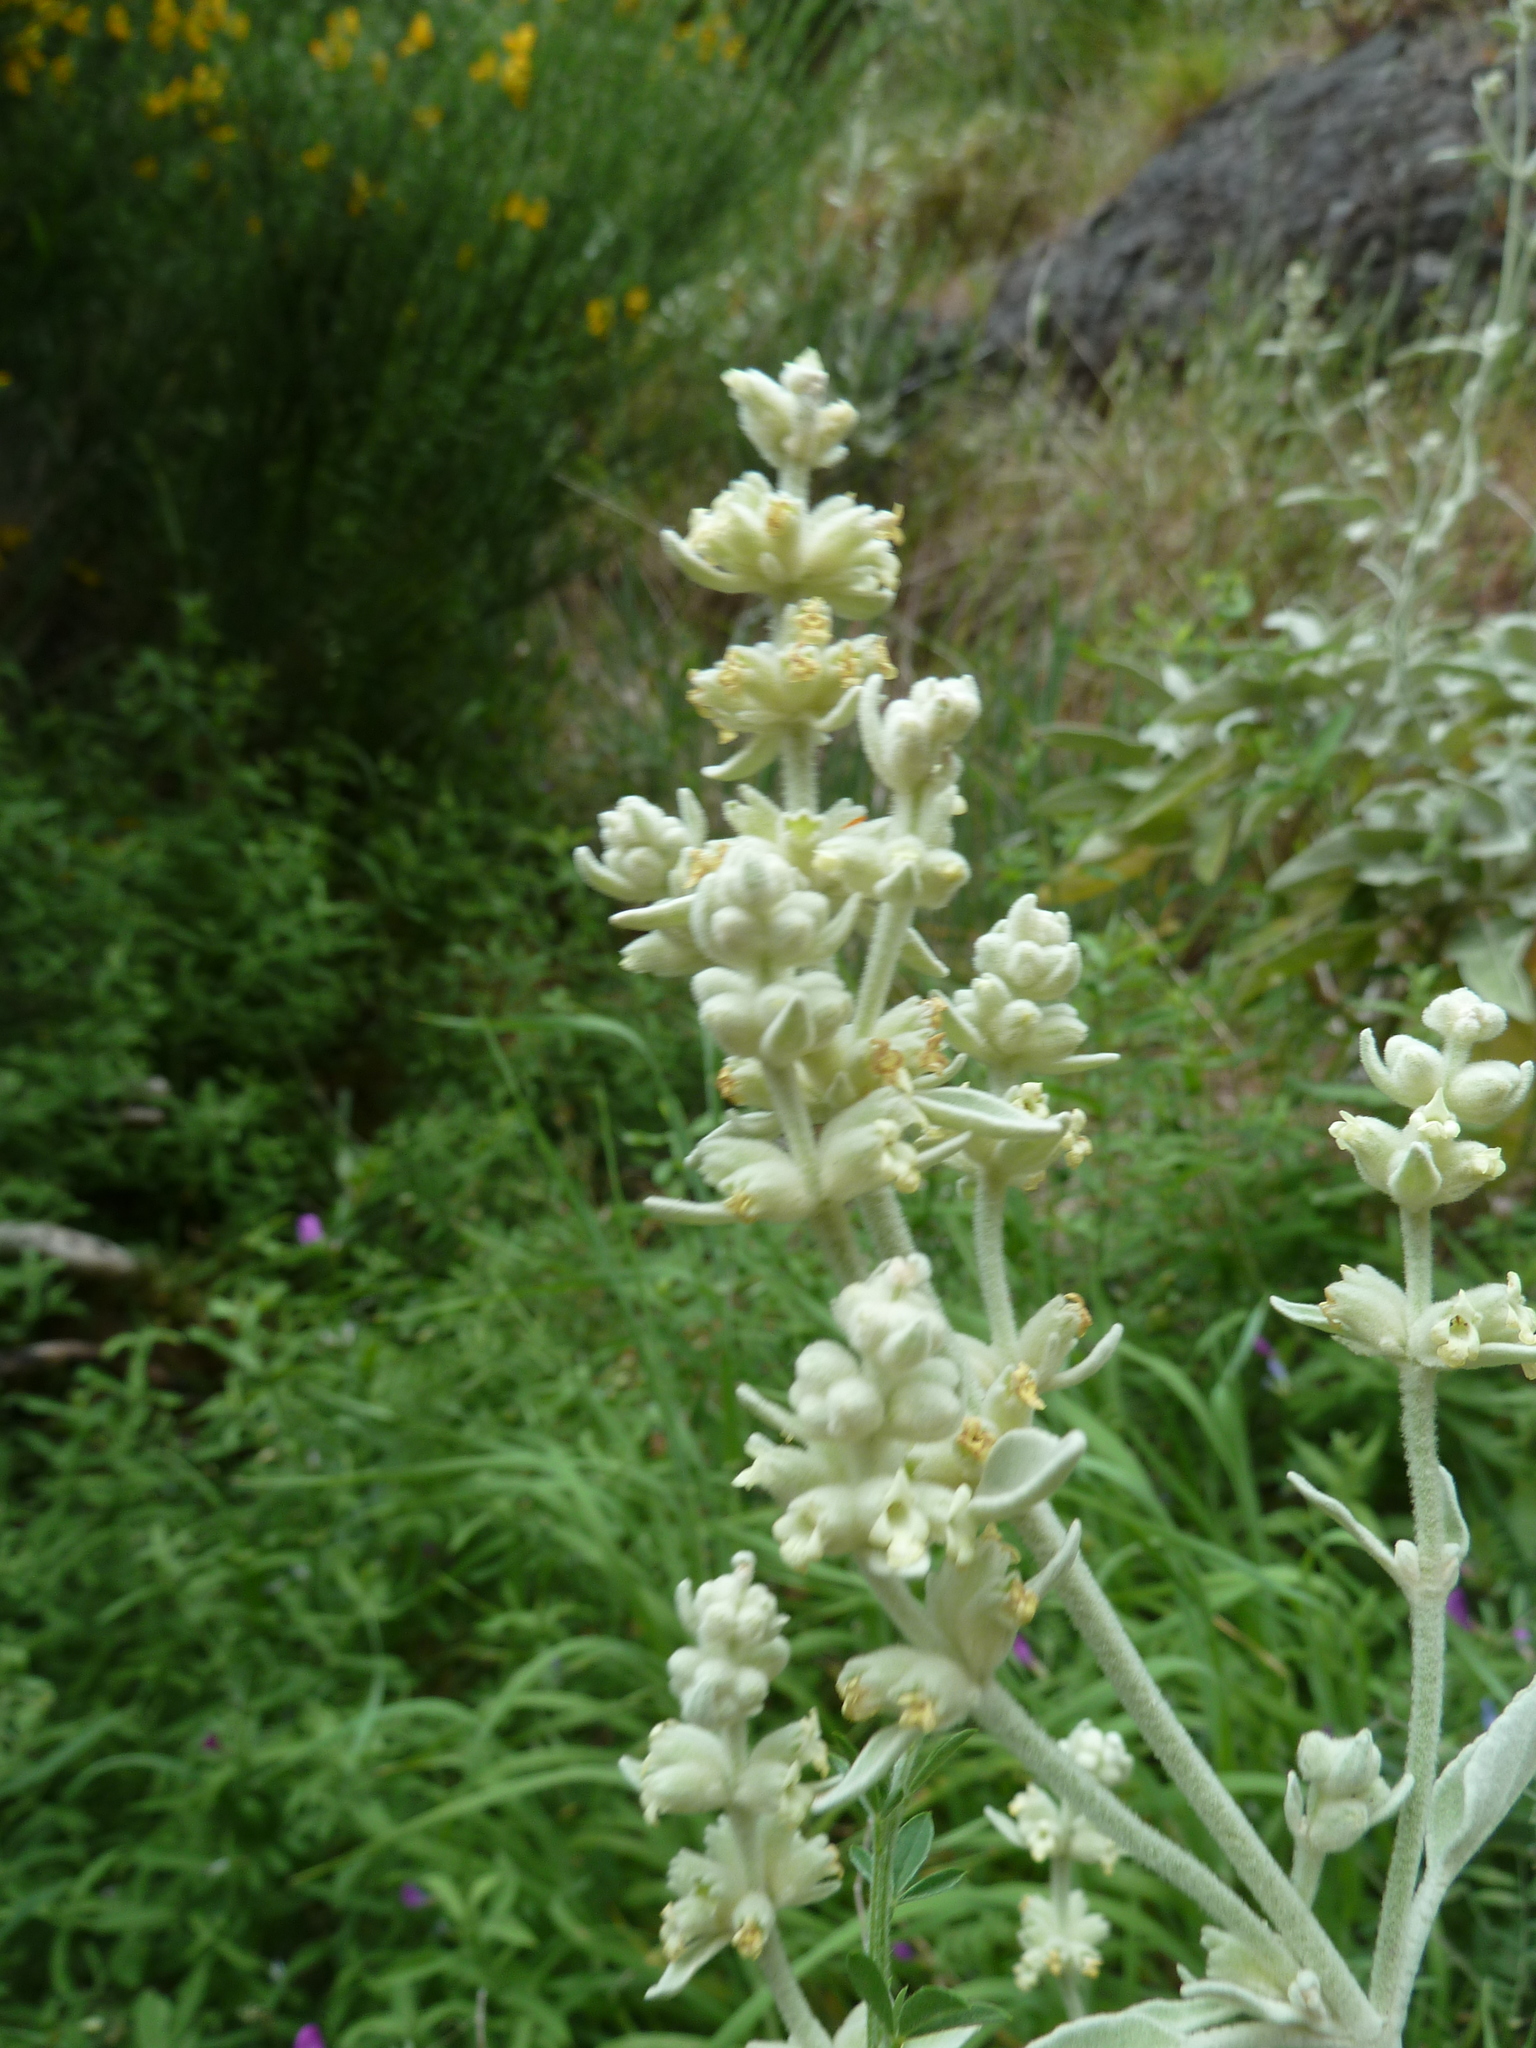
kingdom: Plantae
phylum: Tracheophyta
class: Magnoliopsida
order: Lamiales
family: Lamiaceae
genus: Sideritis
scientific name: Sideritis candicans
